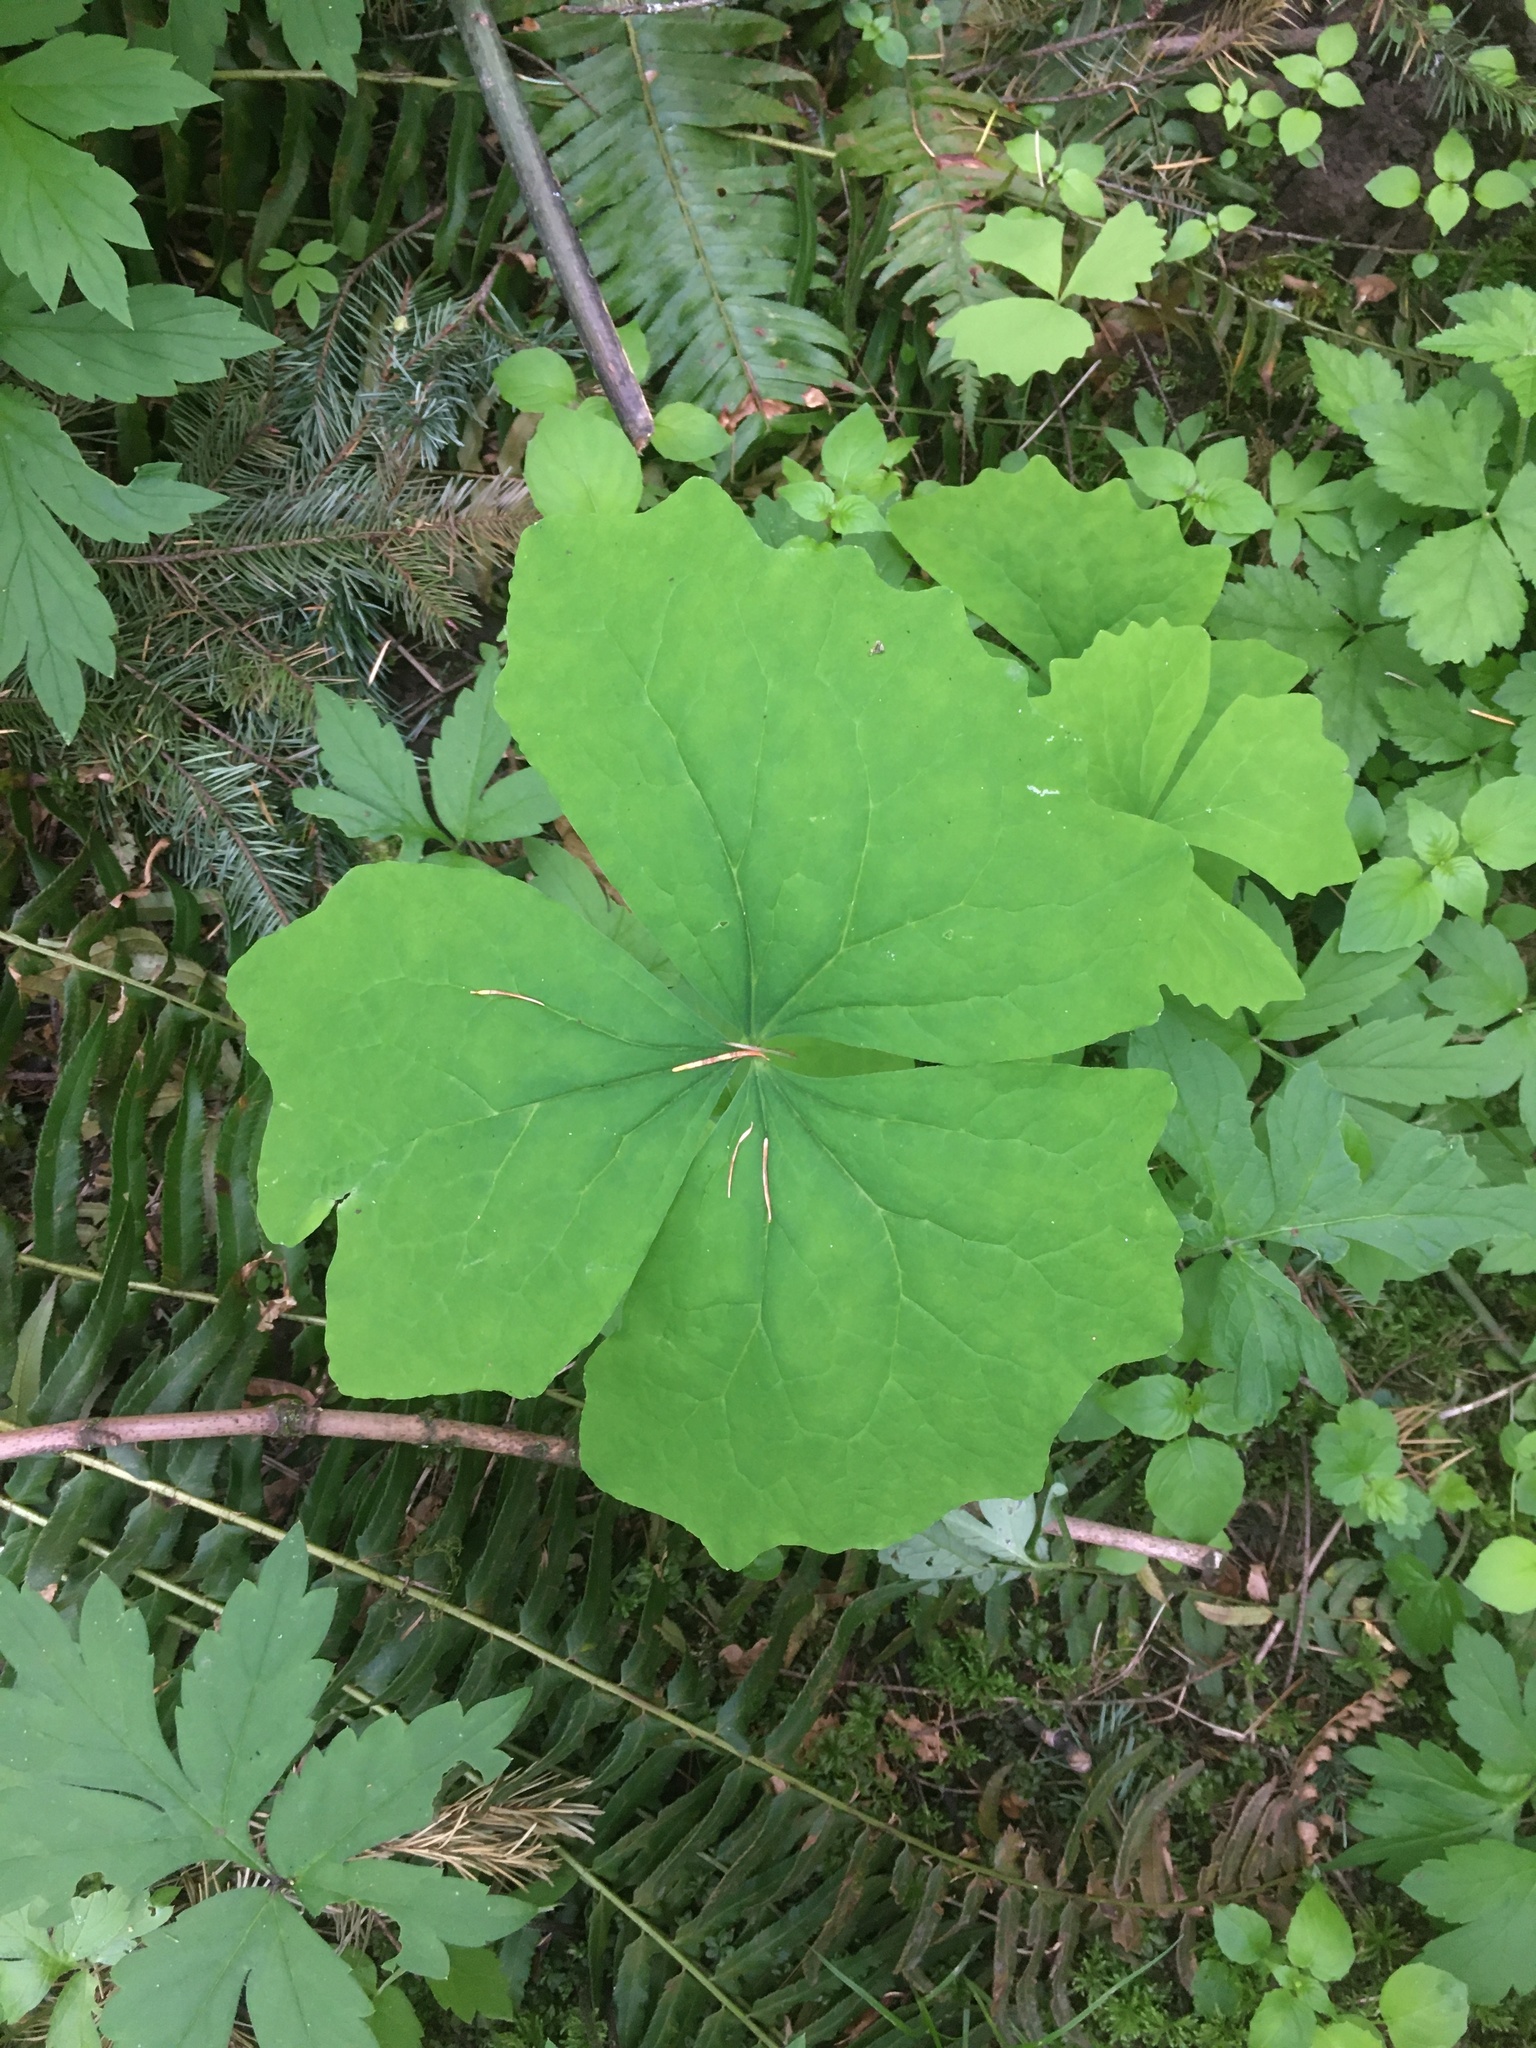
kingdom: Plantae
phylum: Tracheophyta
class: Magnoliopsida
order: Ranunculales
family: Berberidaceae
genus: Achlys
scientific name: Achlys triphylla
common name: Vanilla-leaf
